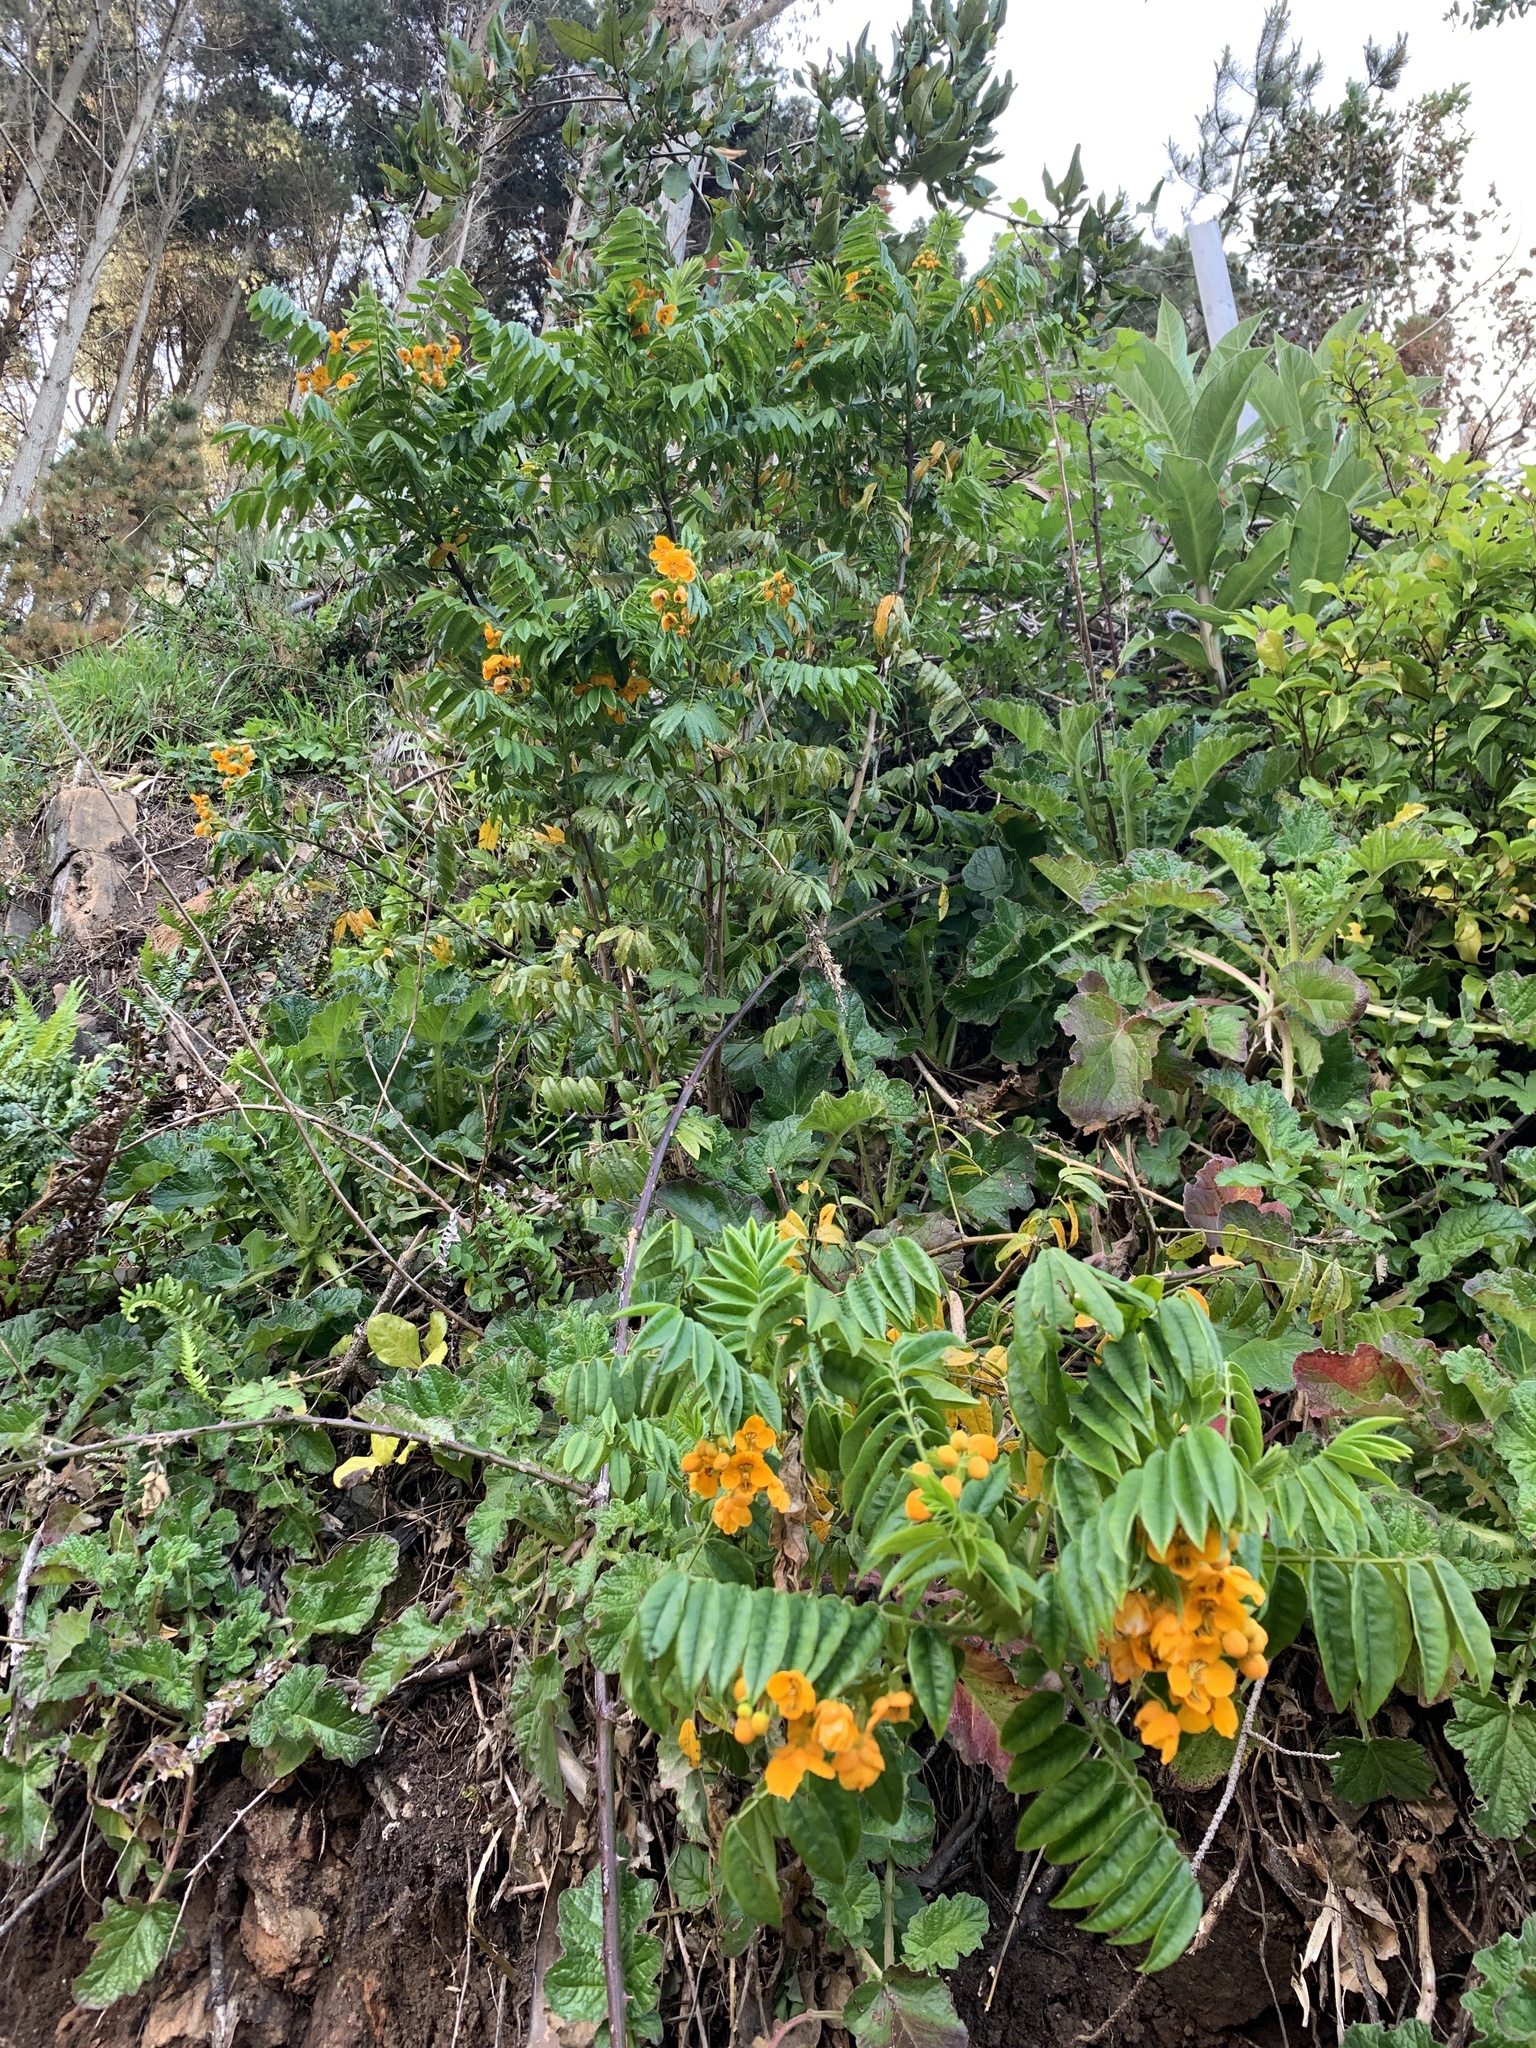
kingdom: Plantae
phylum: Tracheophyta
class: Magnoliopsida
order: Fabales
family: Fabaceae
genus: Senna
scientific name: Senna stipulacea
